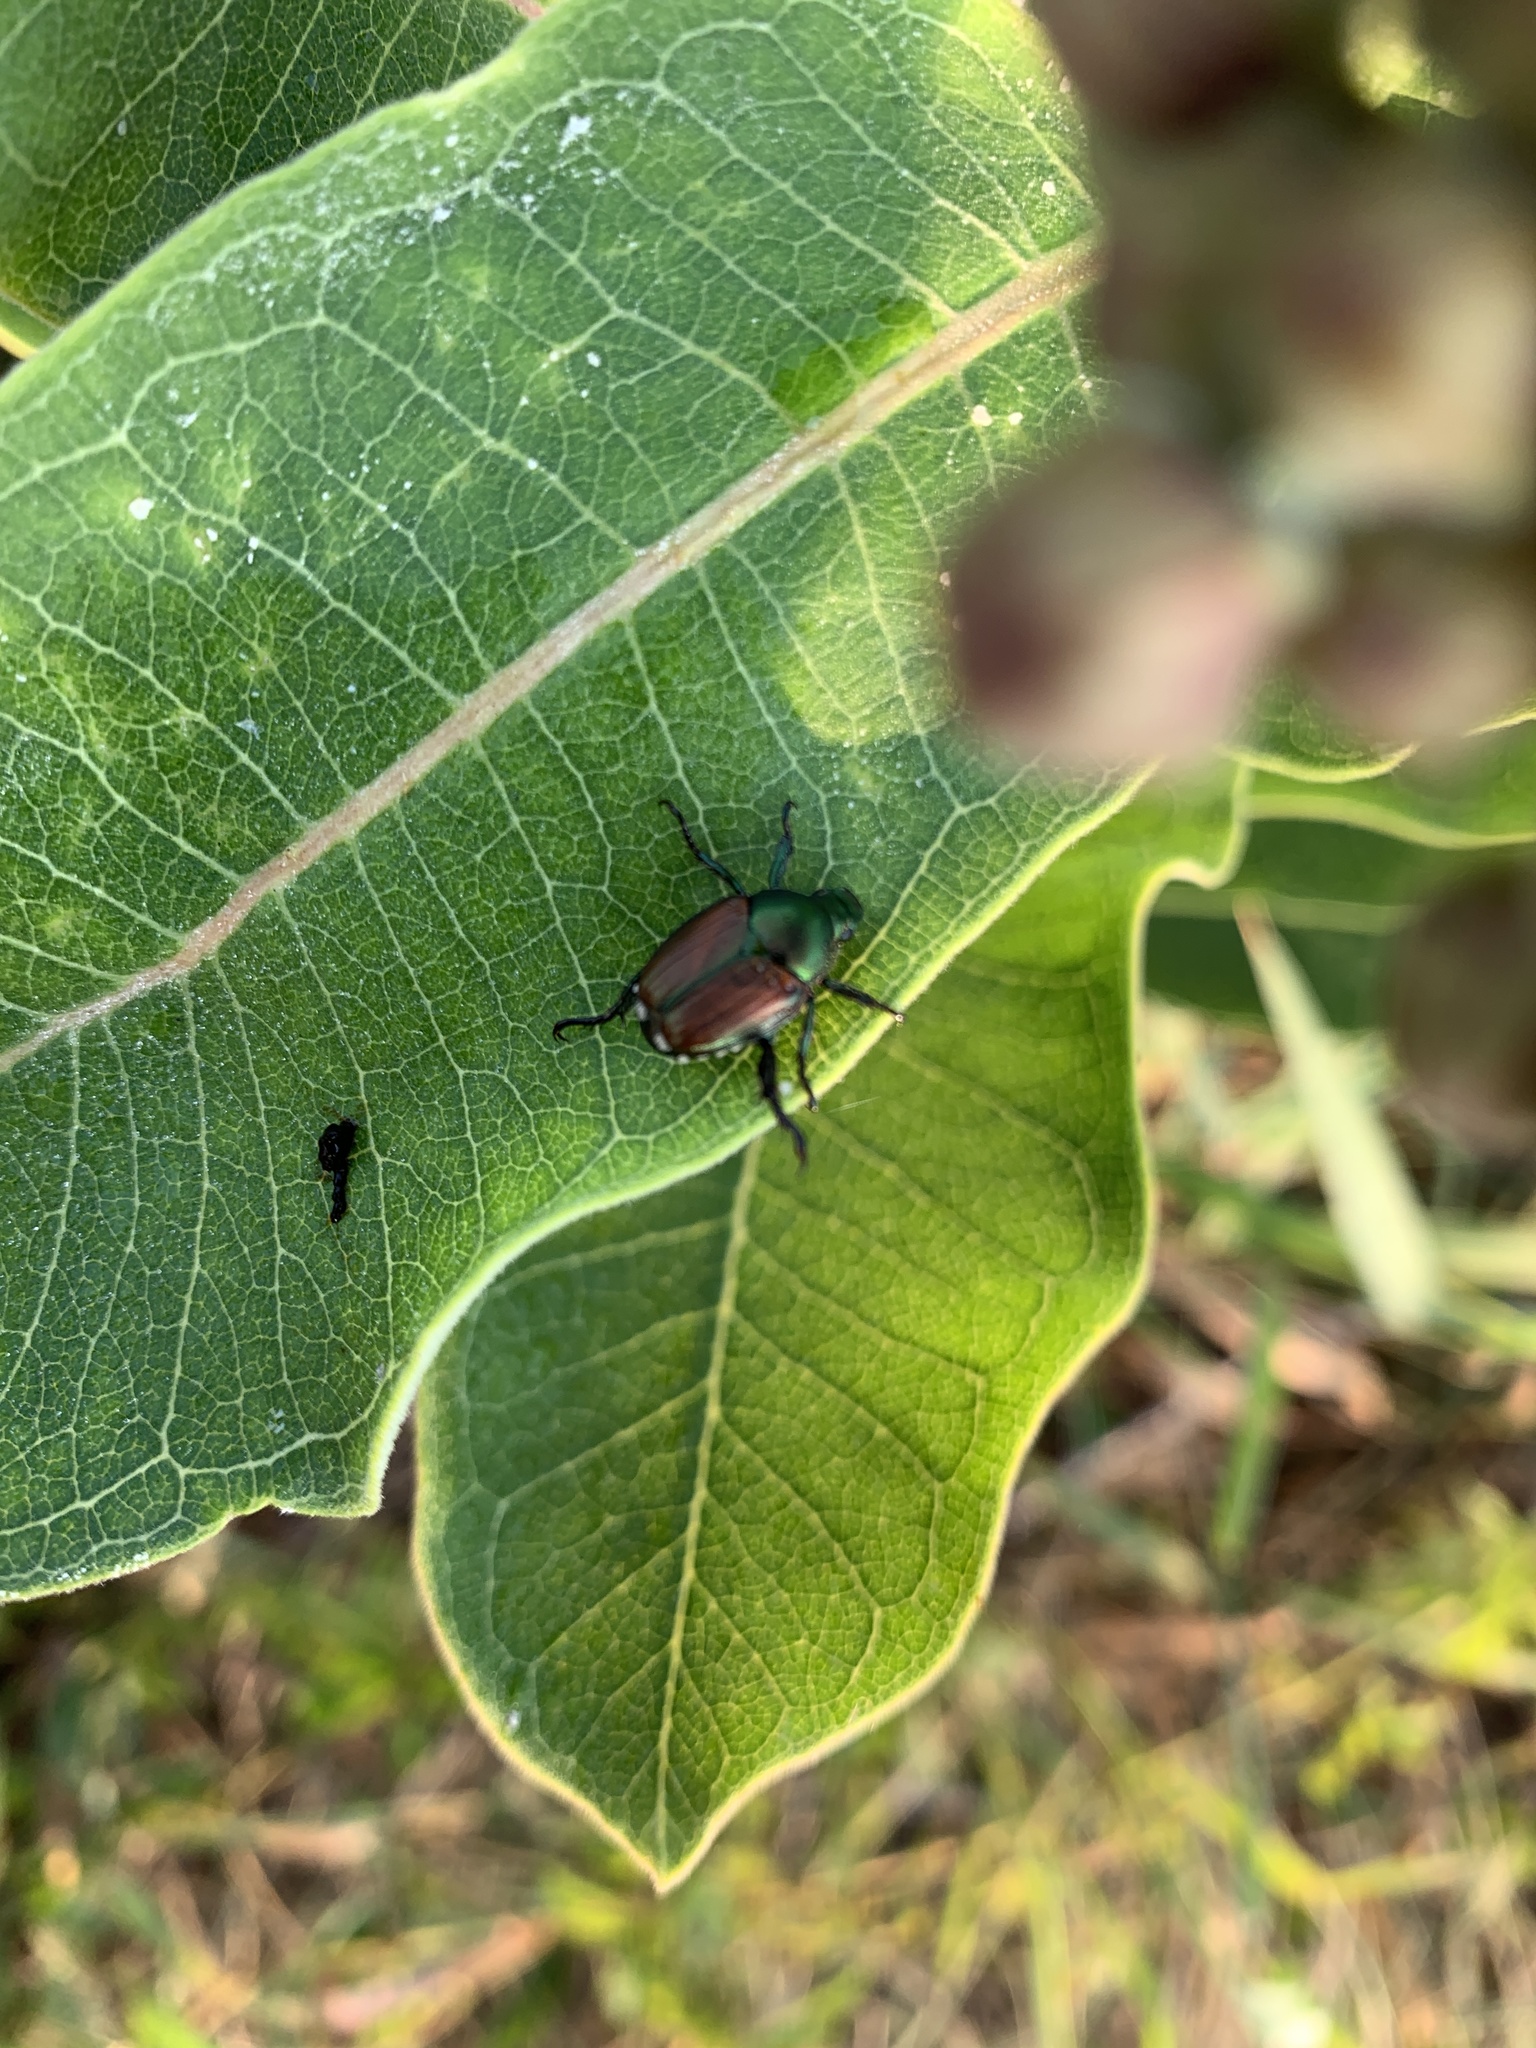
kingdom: Animalia
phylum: Arthropoda
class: Insecta
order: Coleoptera
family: Scarabaeidae
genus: Popillia
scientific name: Popillia japonica
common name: Japanese beetle
